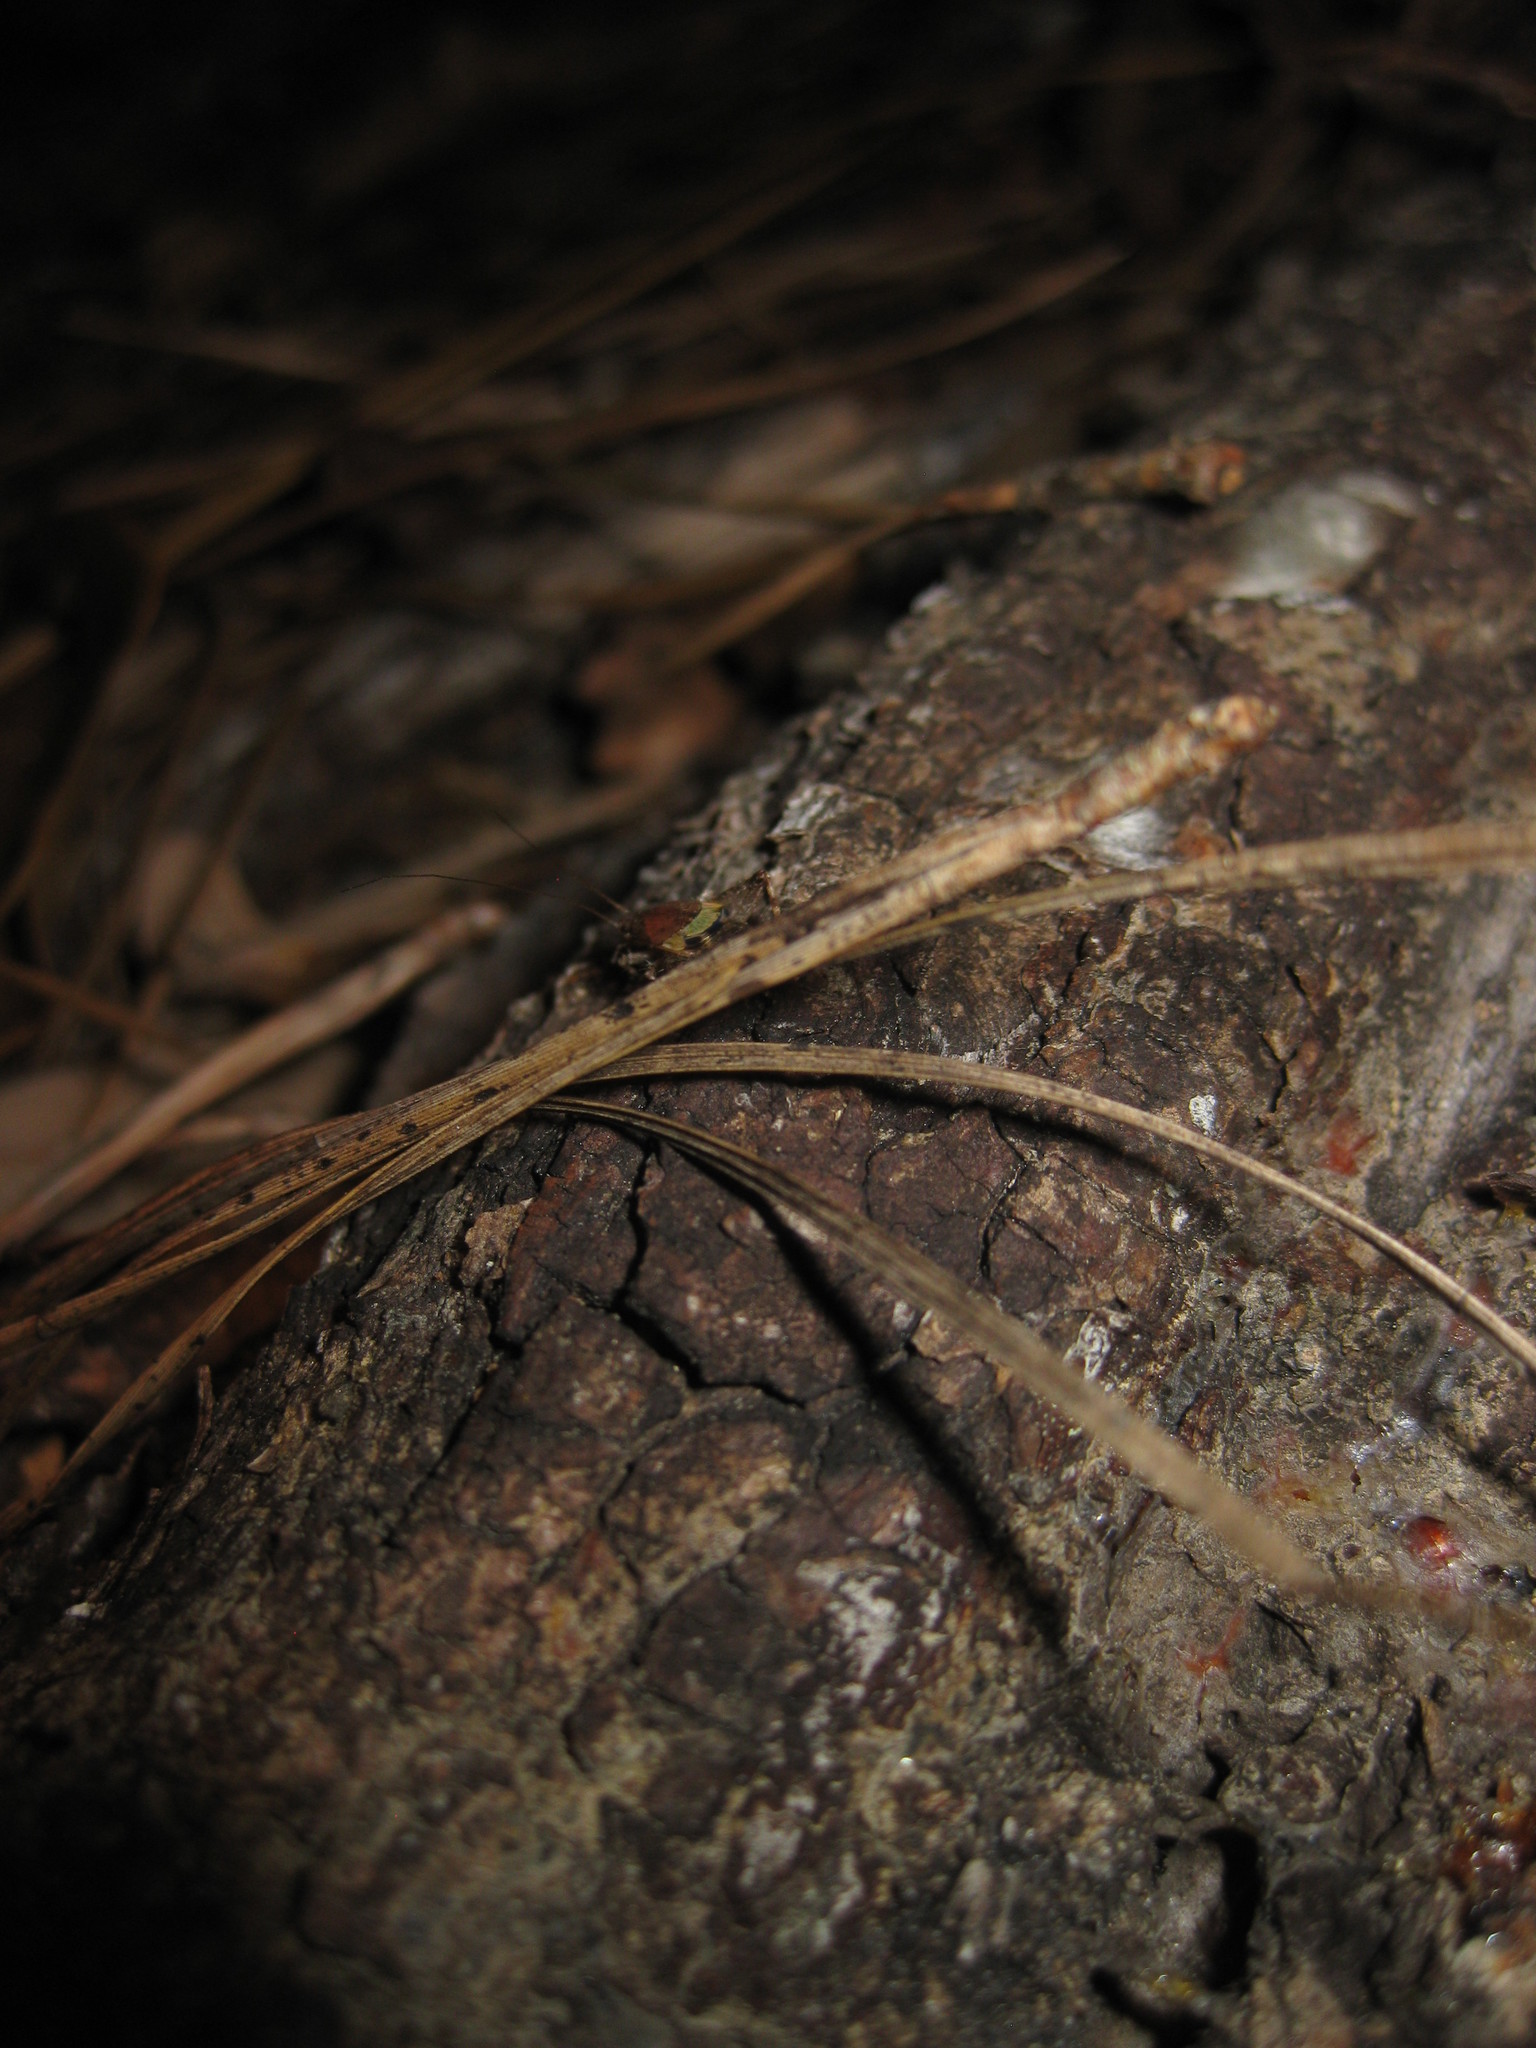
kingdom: Animalia
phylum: Arthropoda
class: Insecta
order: Orthoptera
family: Mogoplistidae
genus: Cycloptilum
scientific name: Cycloptilum bidens
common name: Two-toothed scaly cricket
